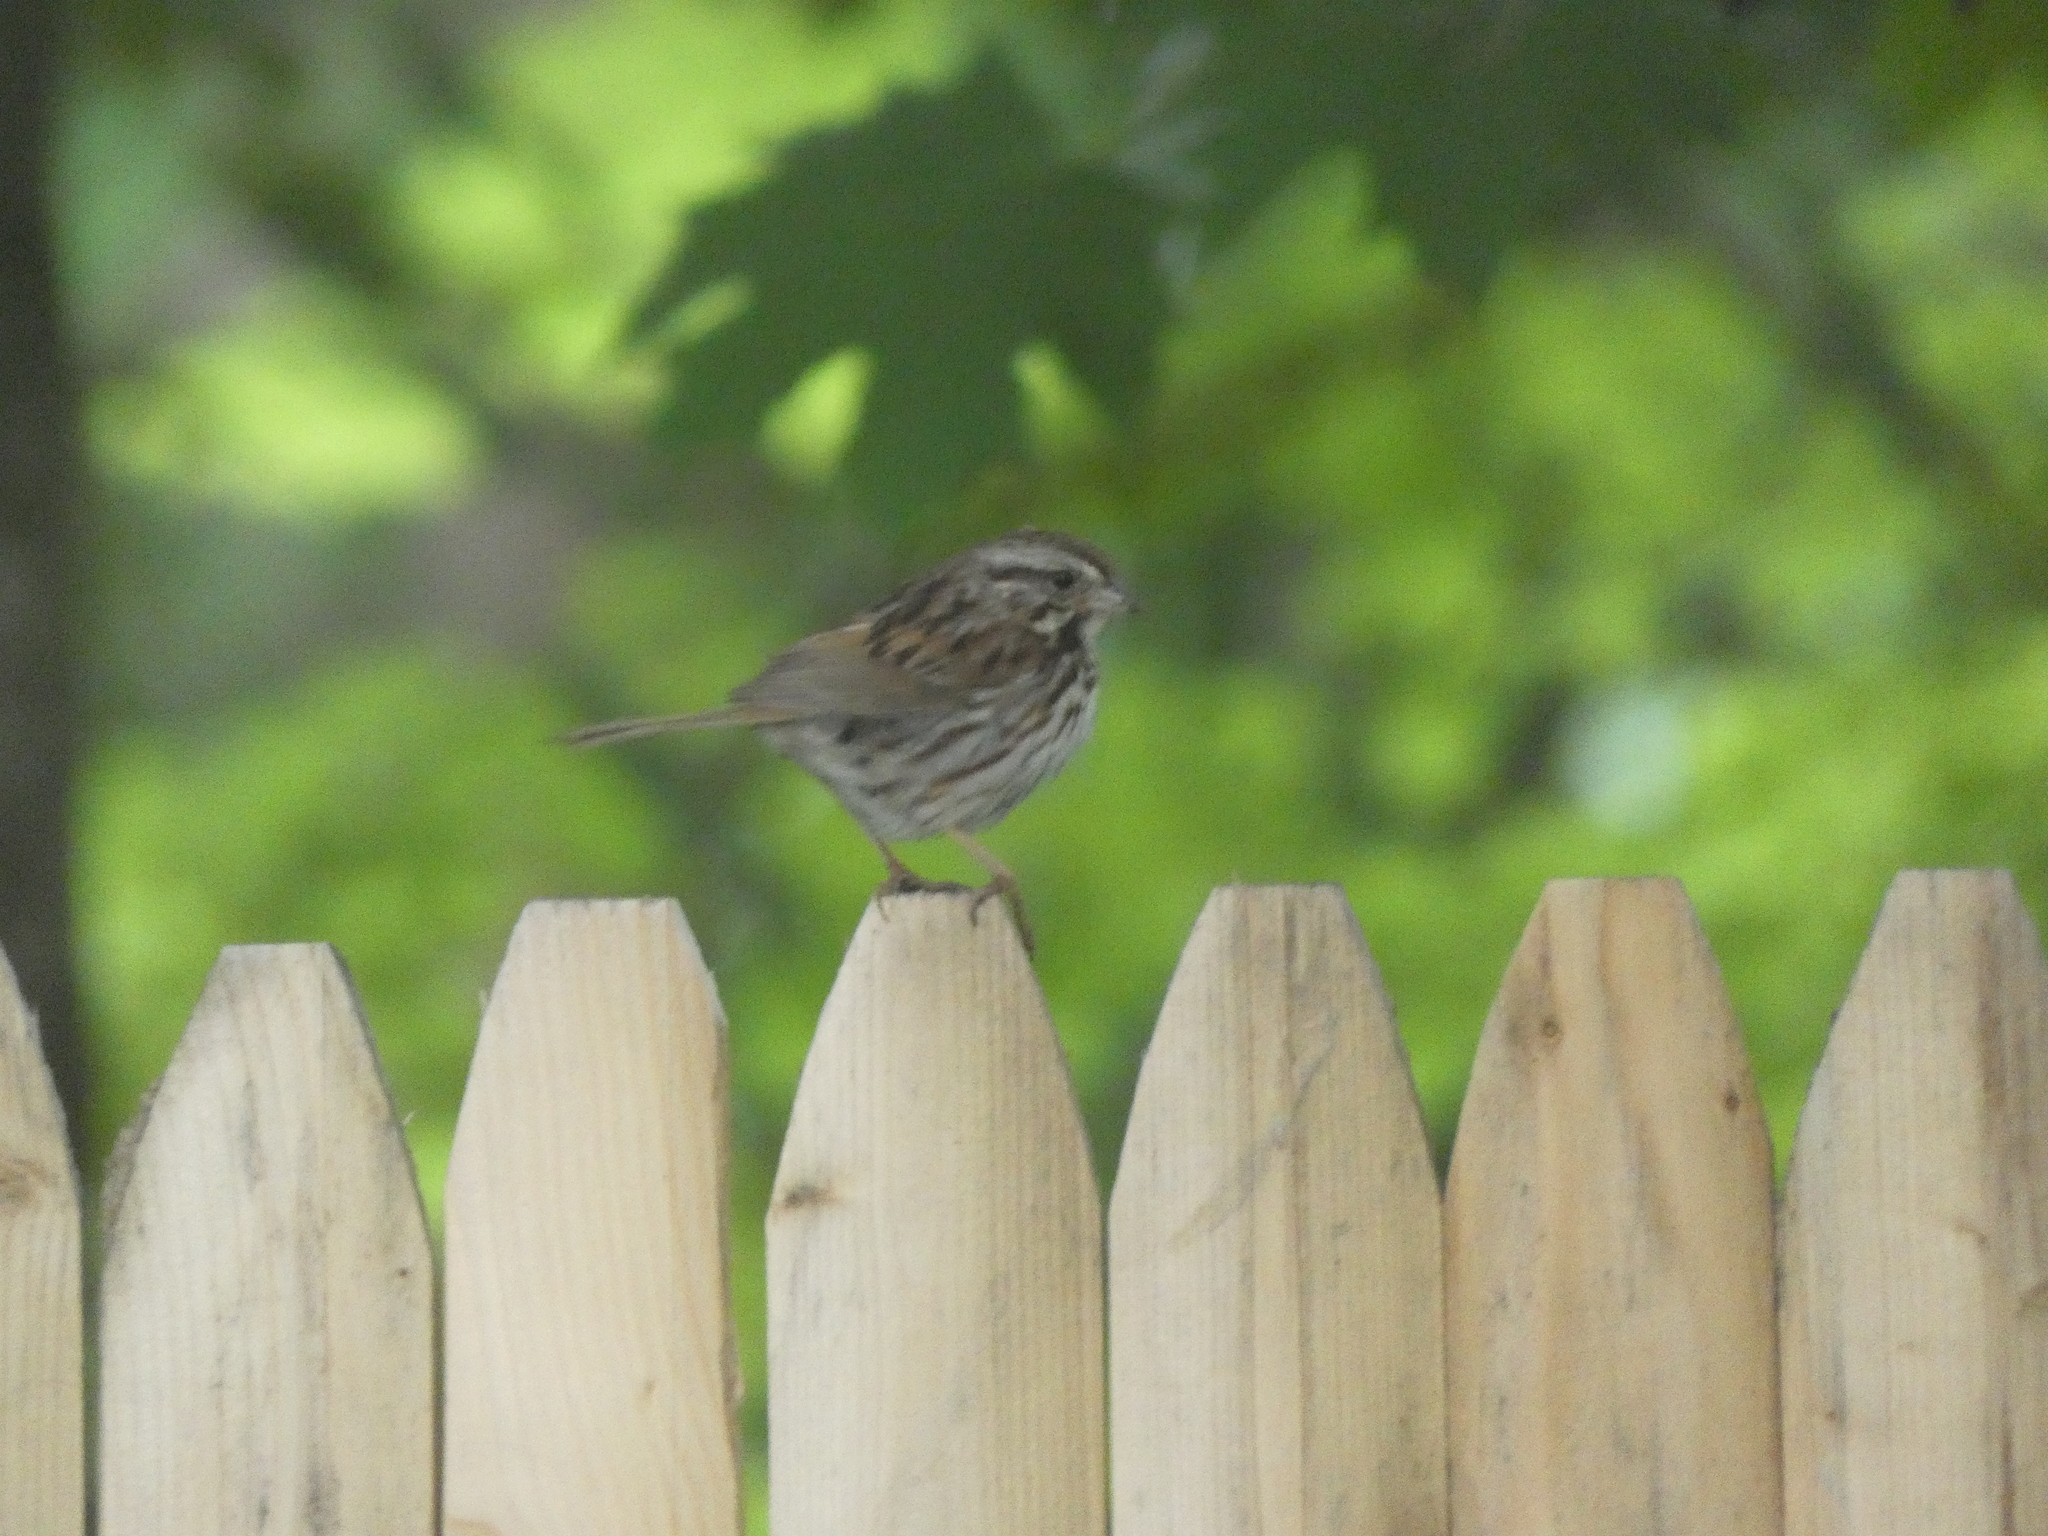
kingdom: Animalia
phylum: Chordata
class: Aves
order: Passeriformes
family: Passerellidae
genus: Melospiza
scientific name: Melospiza melodia
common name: Song sparrow
